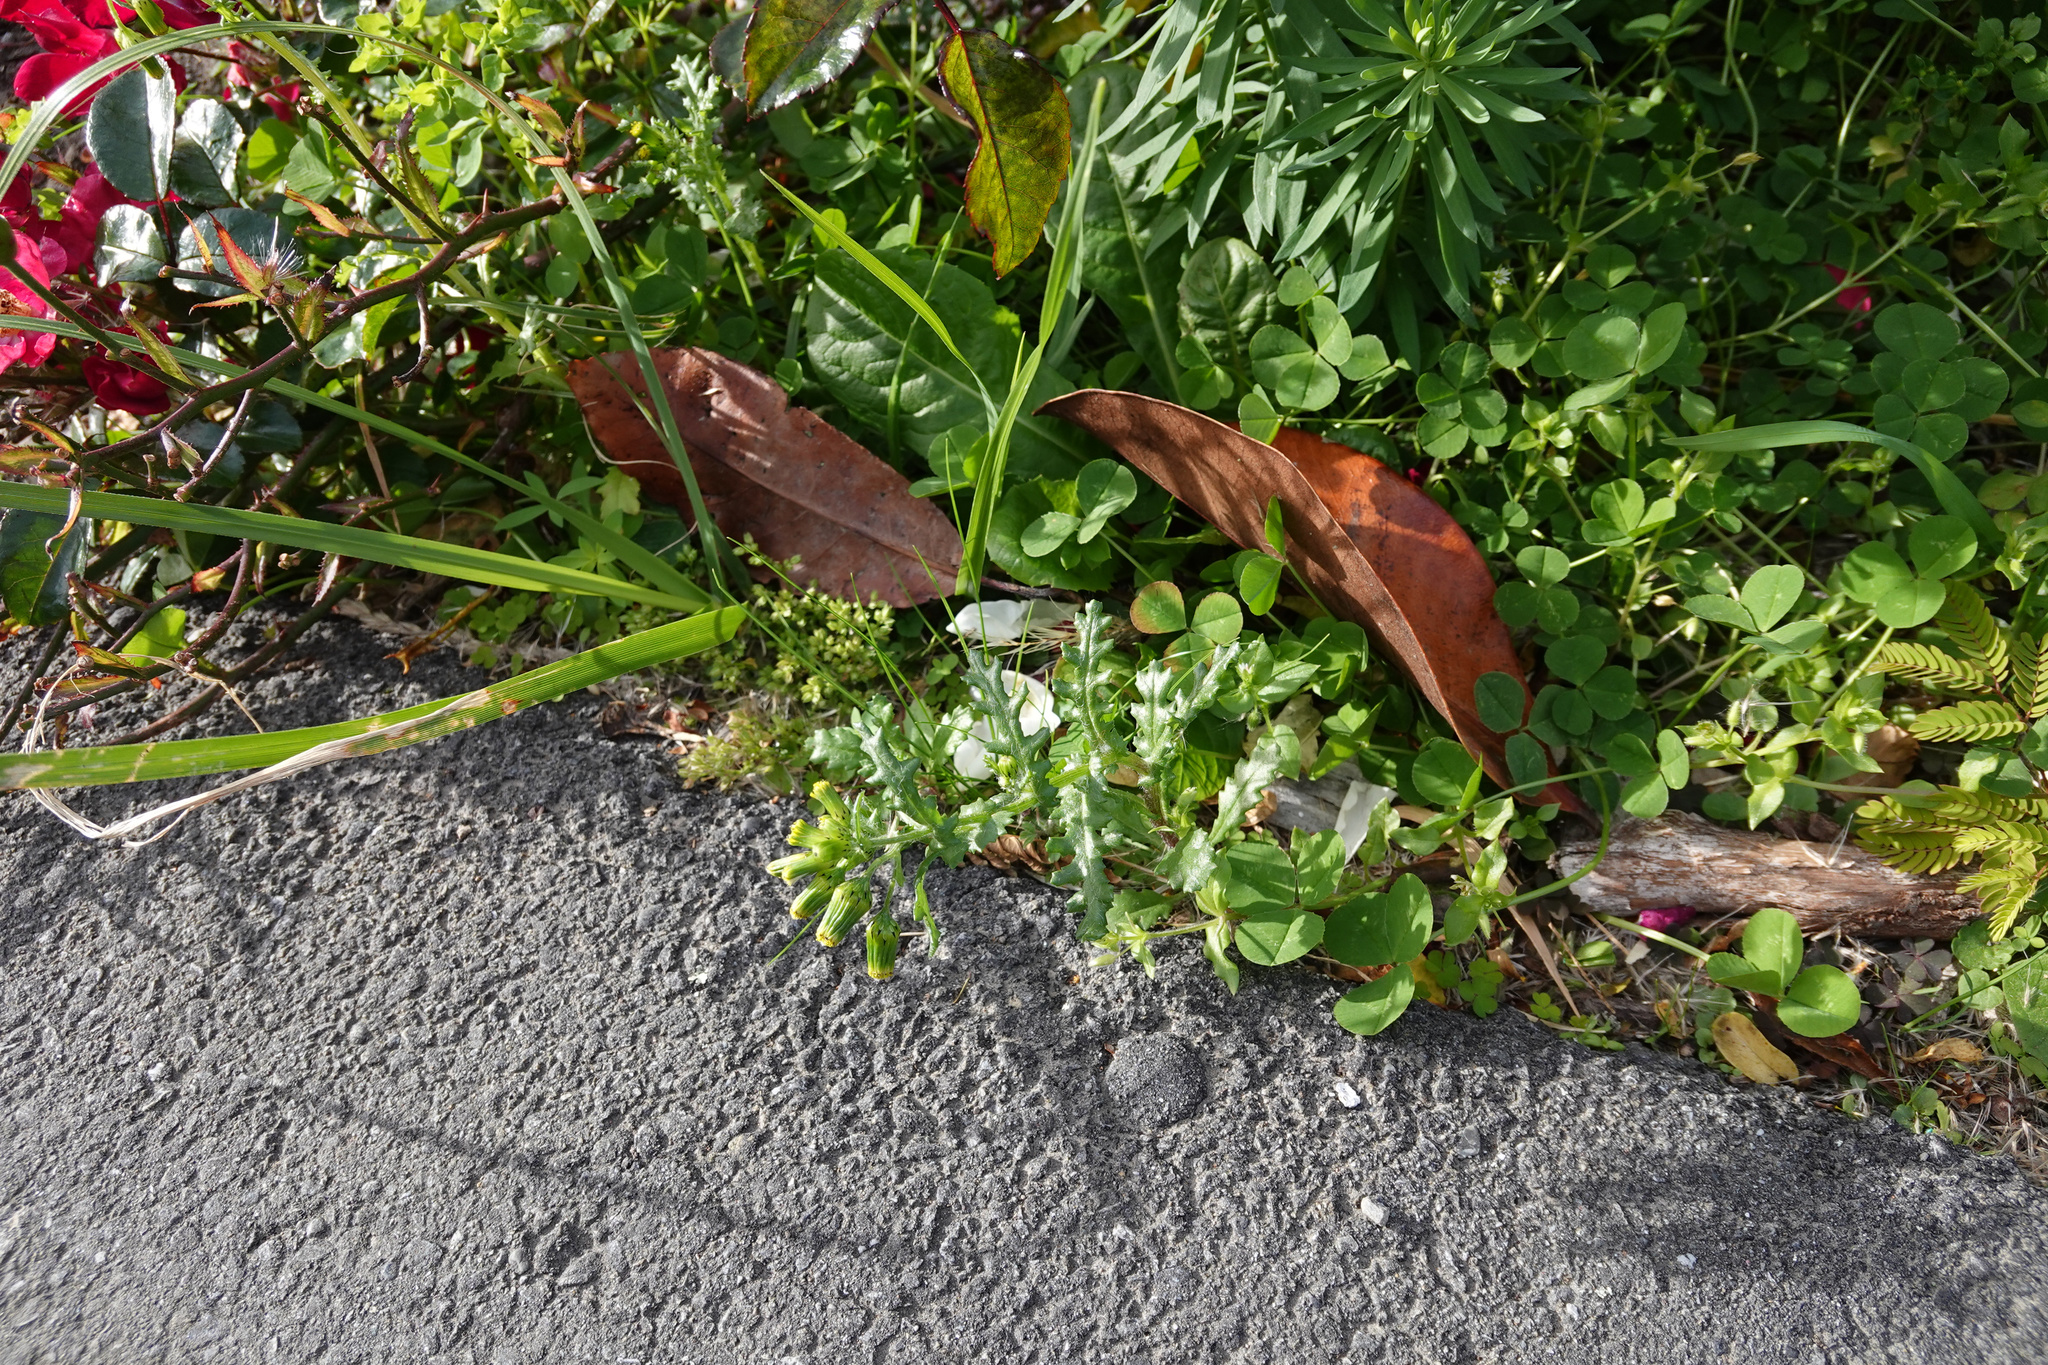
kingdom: Plantae
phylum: Tracheophyta
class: Magnoliopsida
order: Asterales
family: Asteraceae
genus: Senecio
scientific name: Senecio vulgaris
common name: Old-man-in-the-spring
